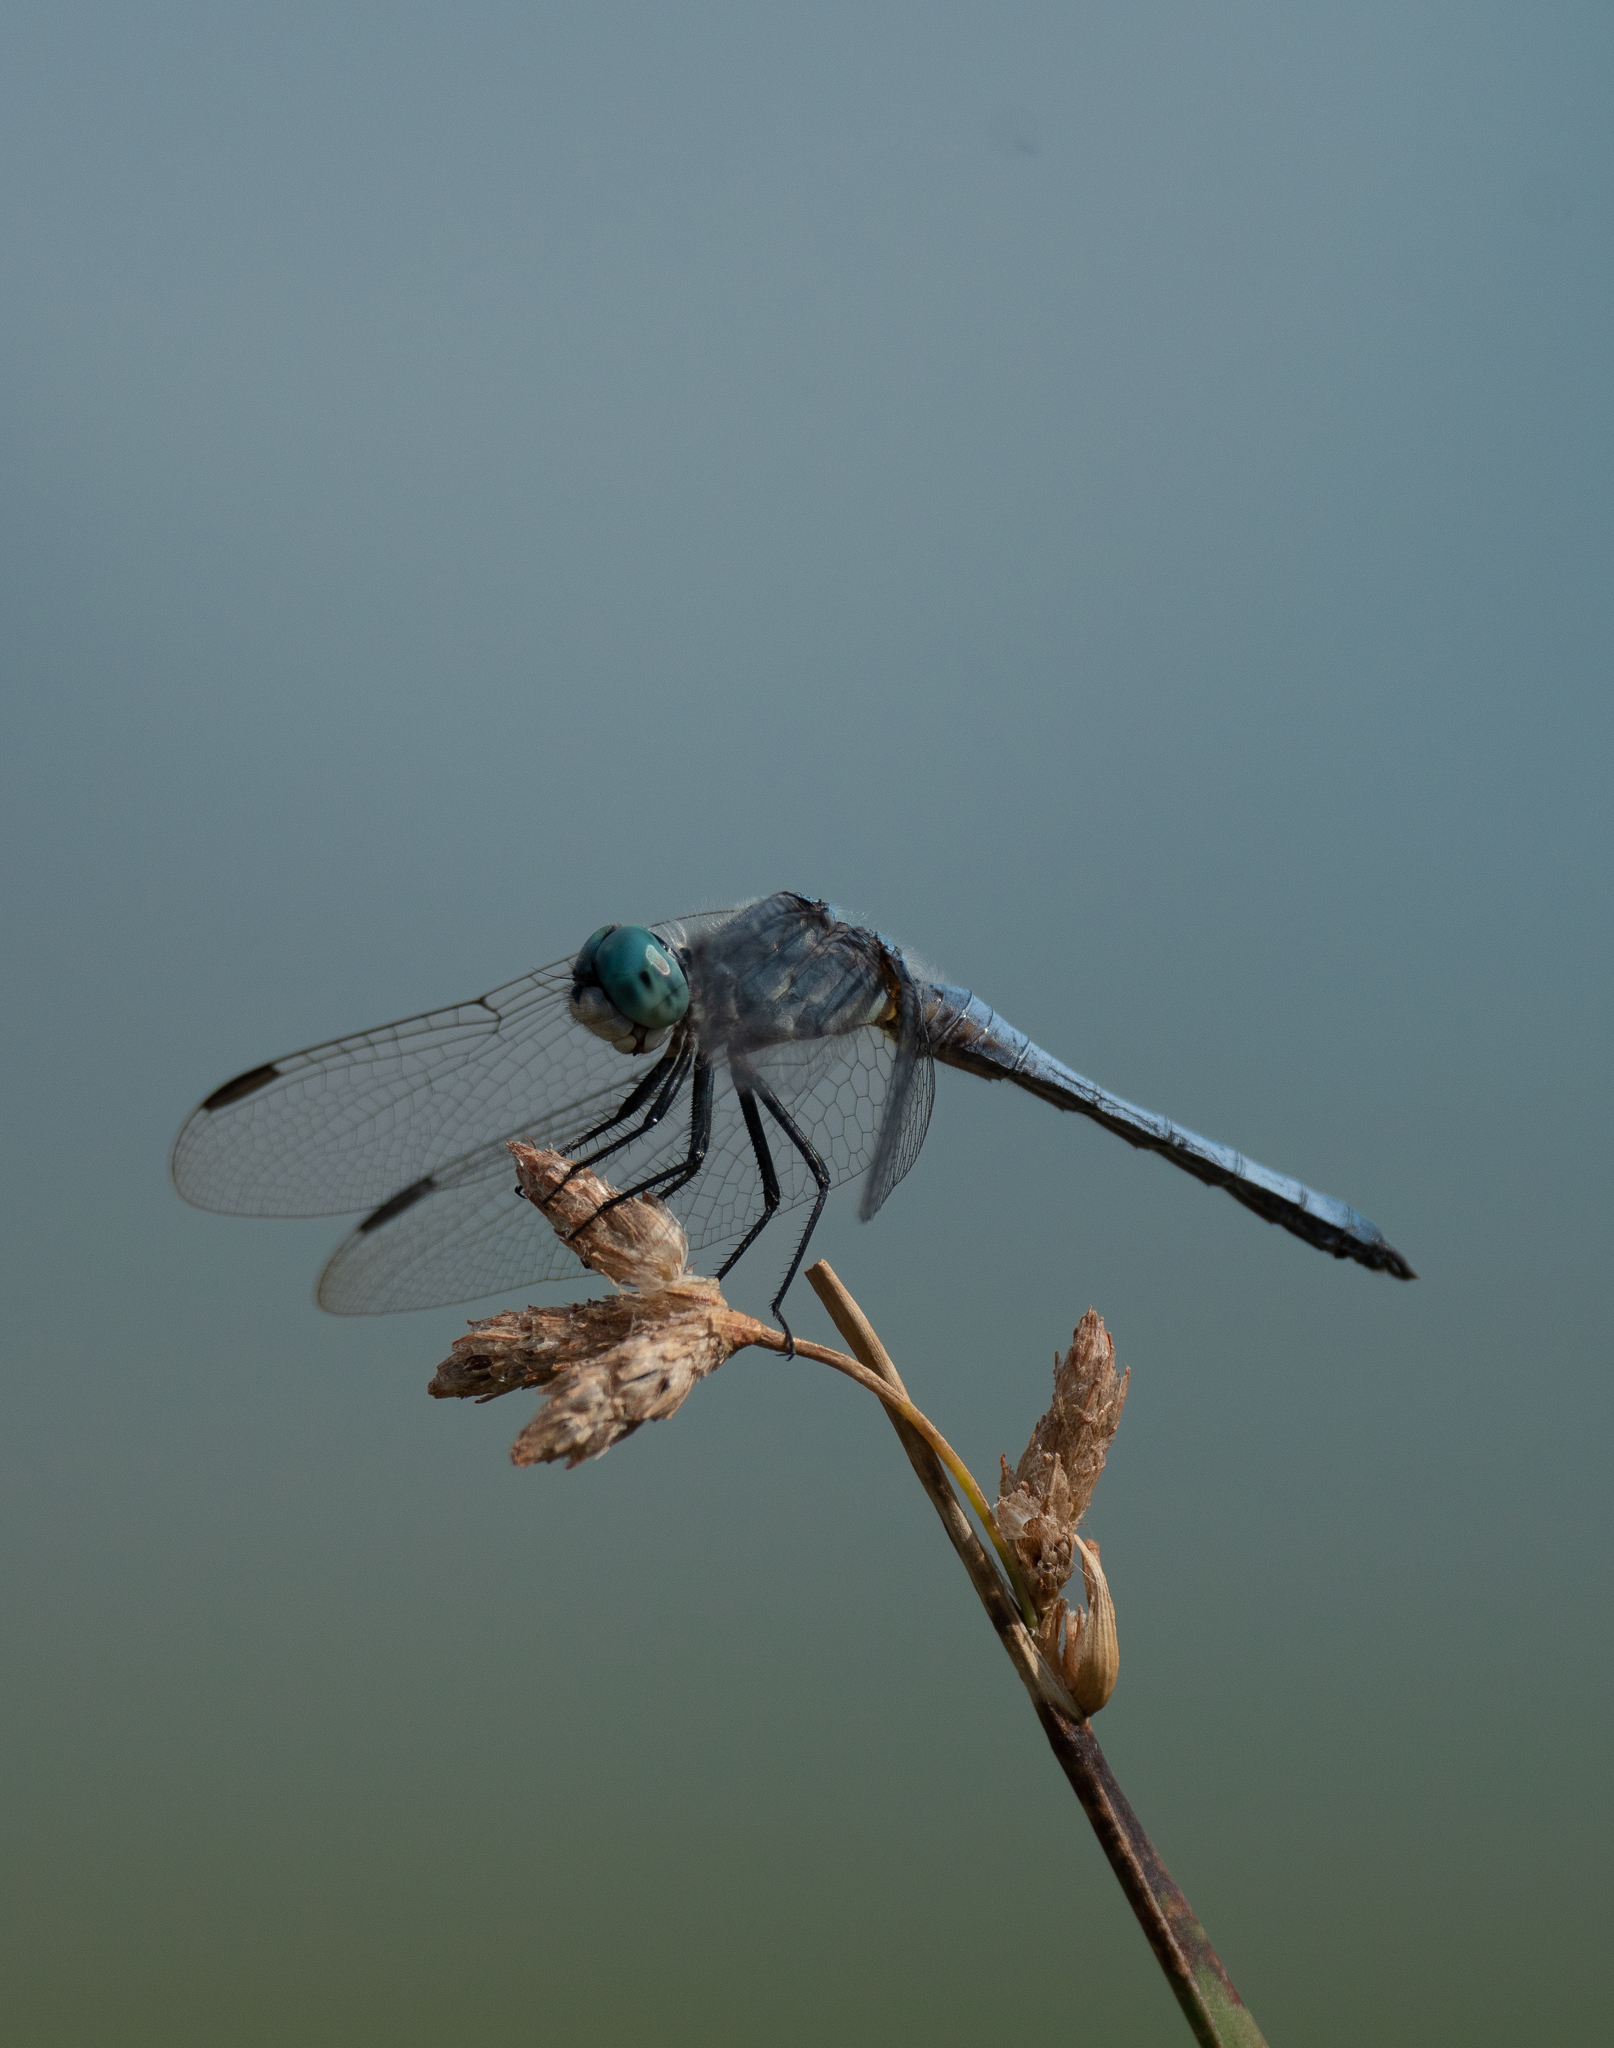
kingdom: Animalia
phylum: Arthropoda
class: Insecta
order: Odonata
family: Libellulidae
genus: Pachydiplax
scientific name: Pachydiplax longipennis
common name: Blue dasher
